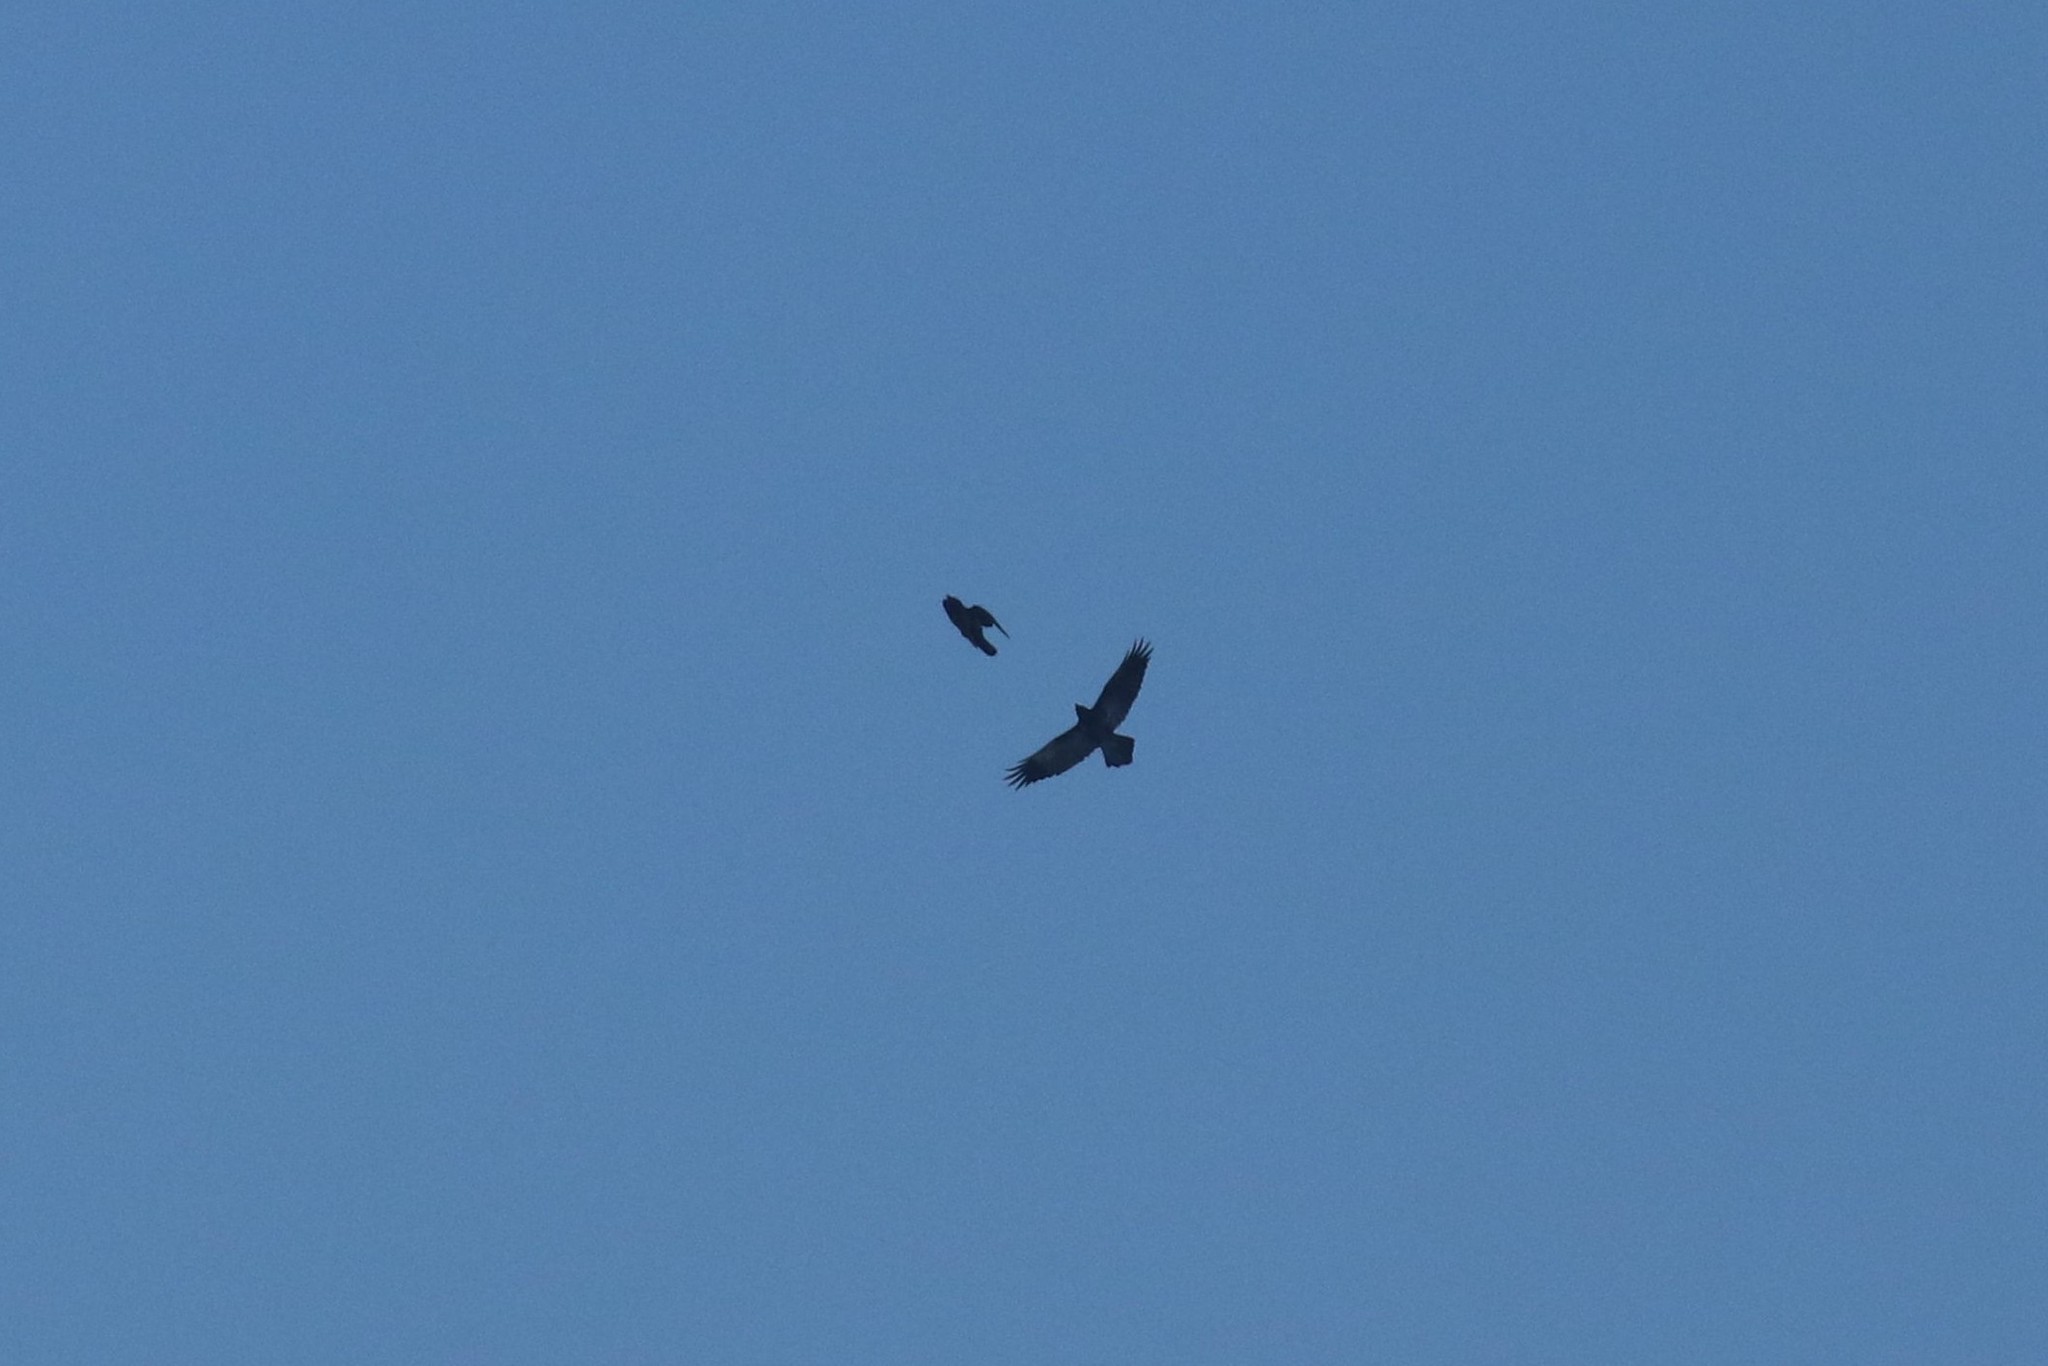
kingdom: Animalia
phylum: Chordata
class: Aves
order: Passeriformes
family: Corvidae
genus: Corvus
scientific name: Corvus corax
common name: Common raven
